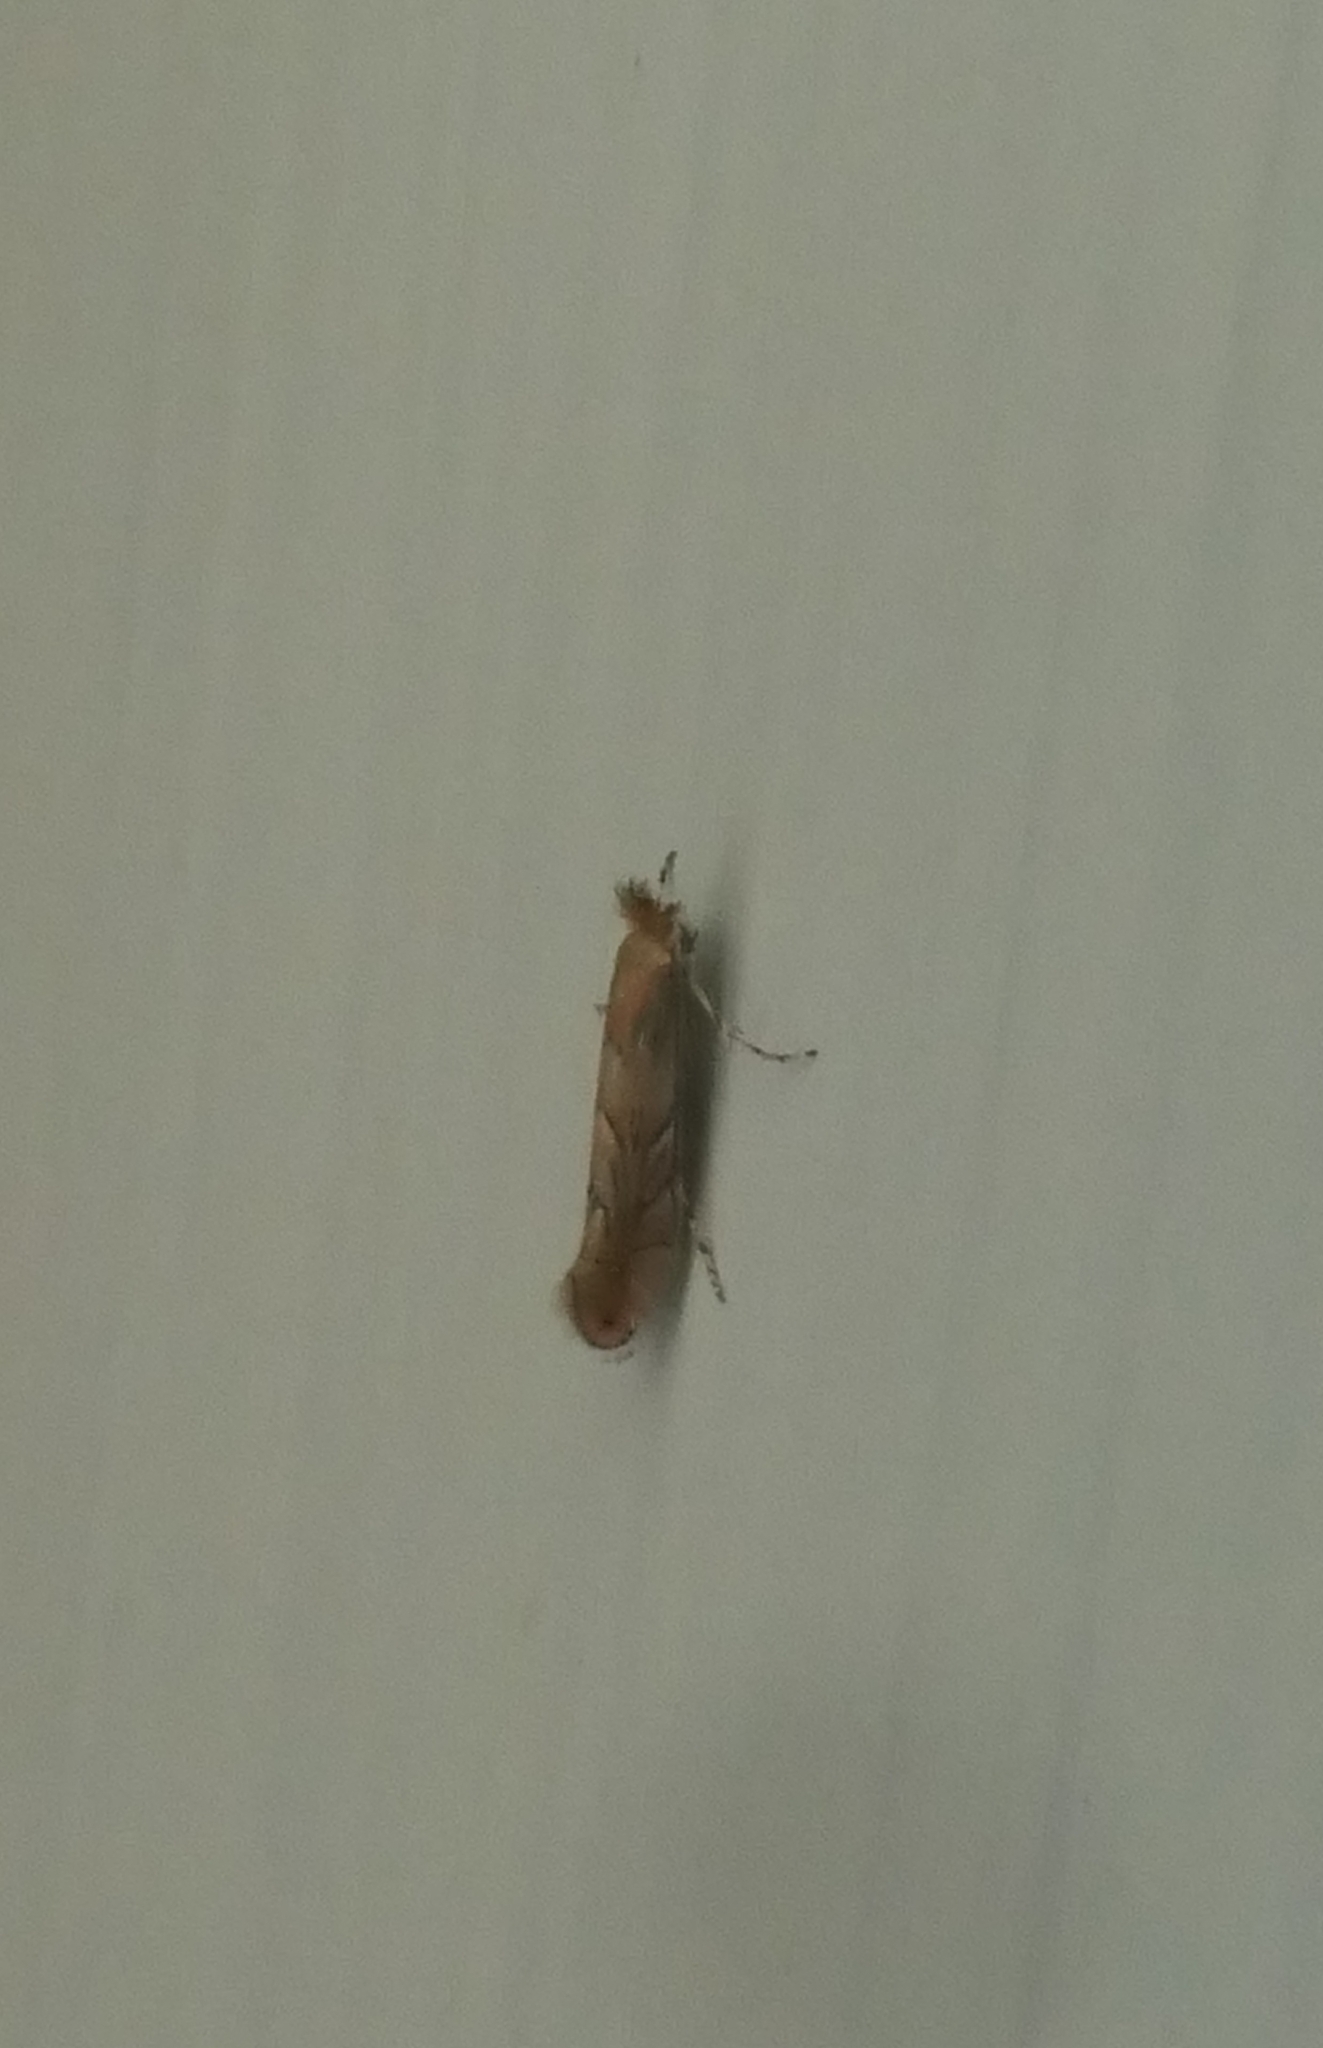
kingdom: Animalia
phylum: Arthropoda
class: Insecta
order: Lepidoptera
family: Gracillariidae
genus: Phyllonorycter
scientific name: Phyllonorycter messaniella
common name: Garden midget
